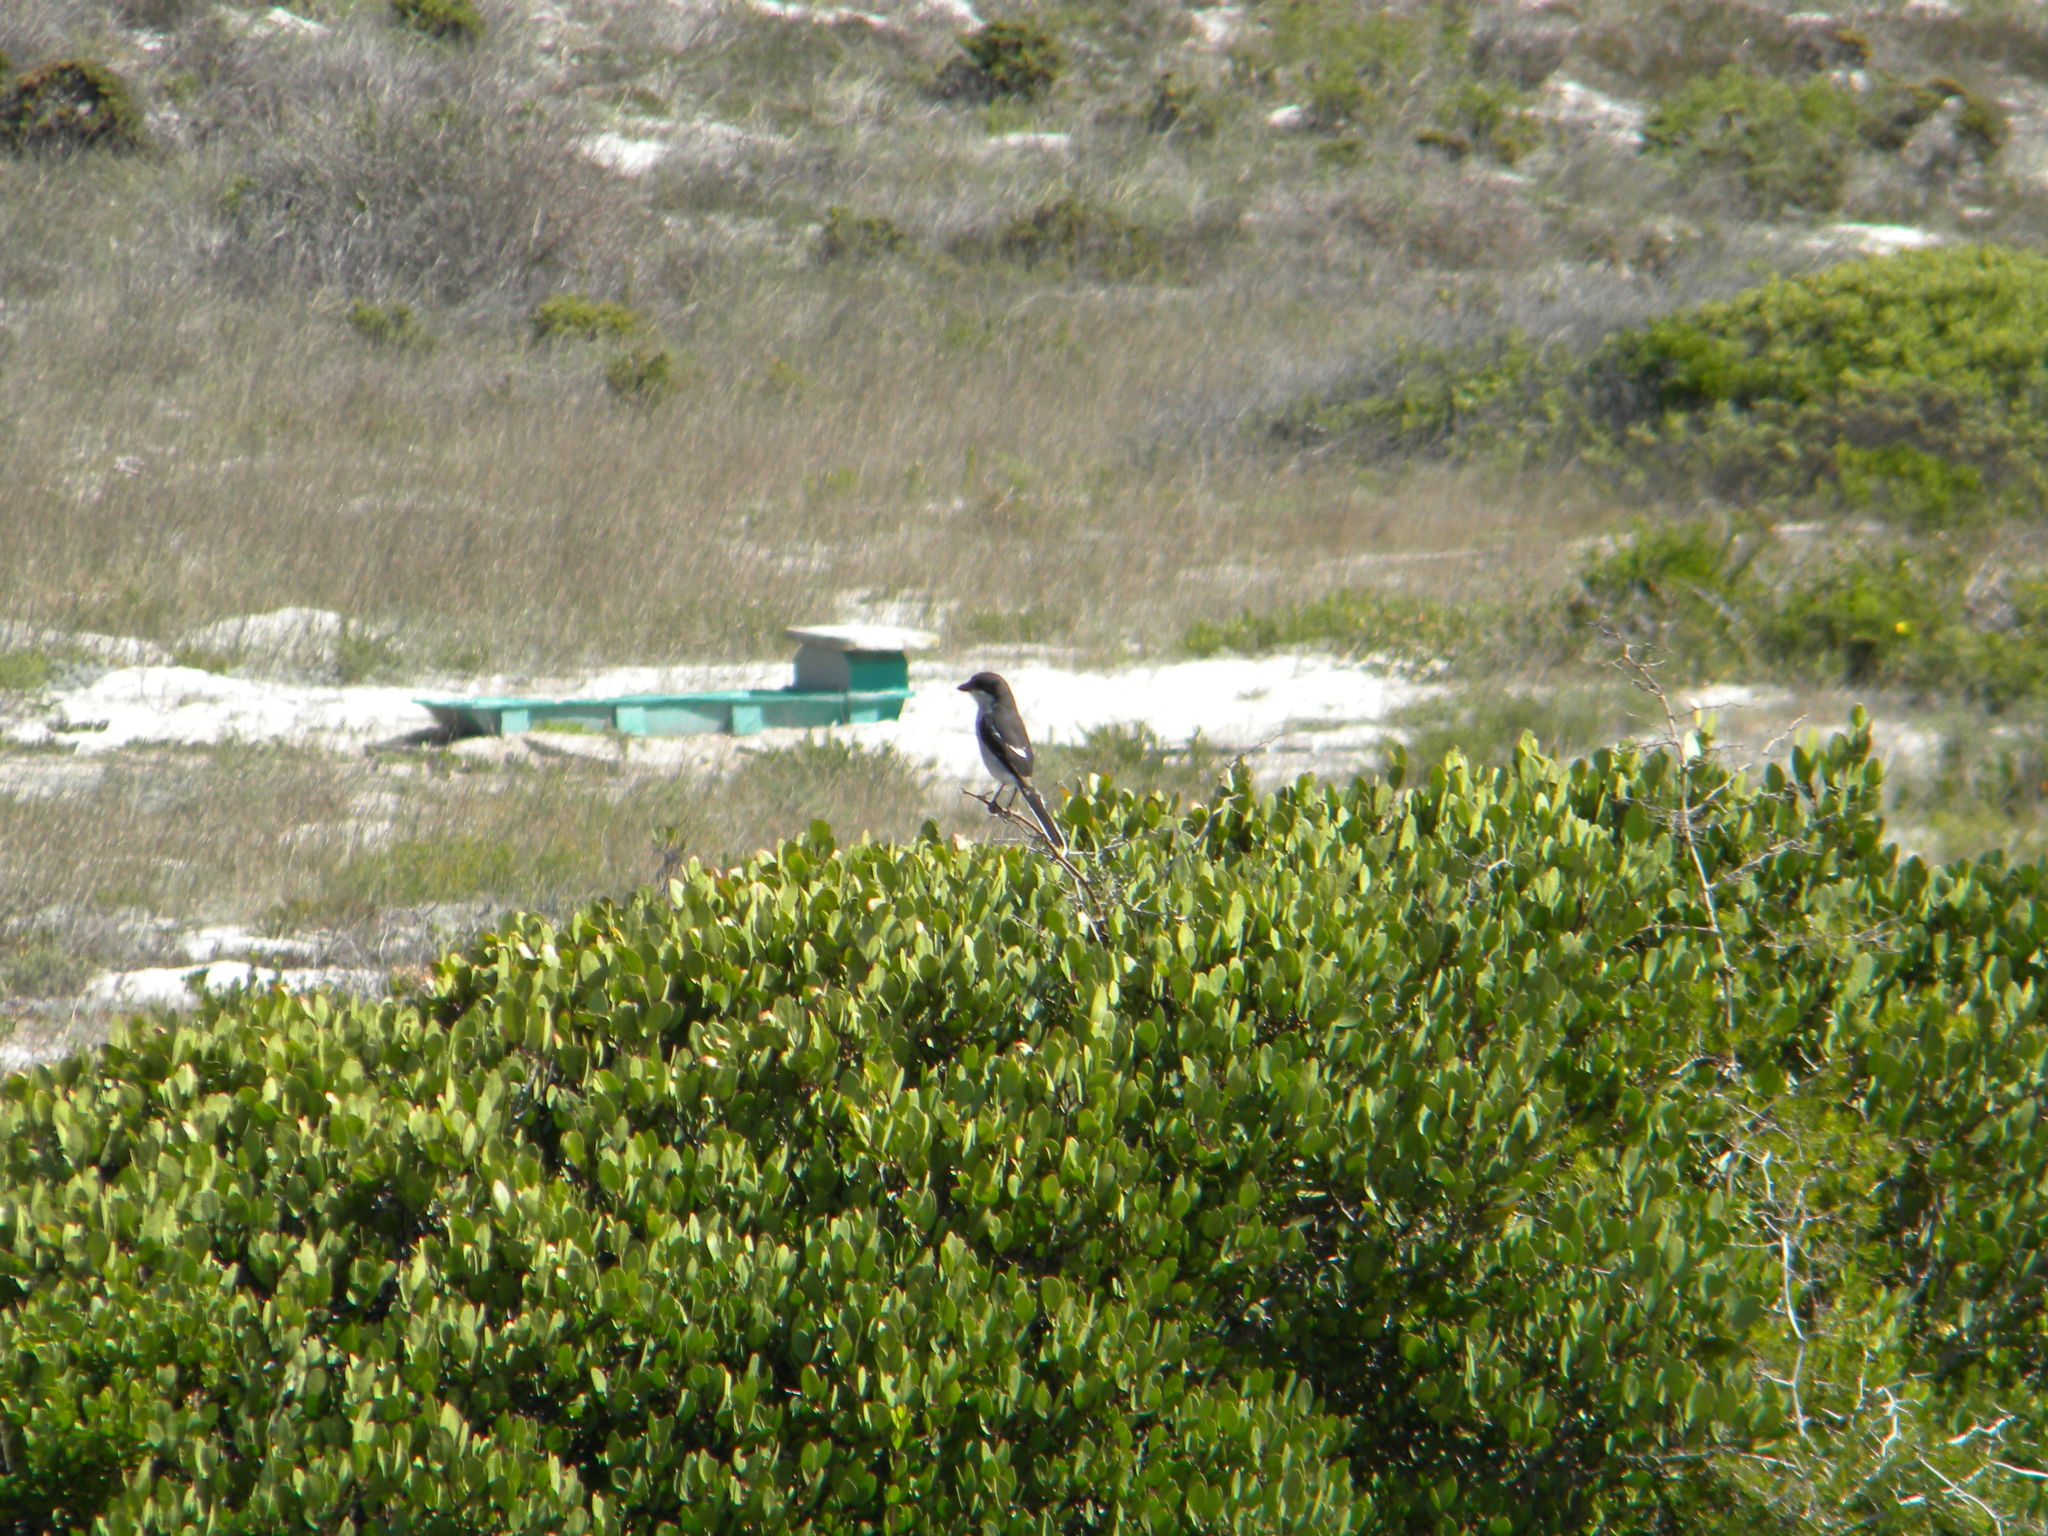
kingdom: Animalia
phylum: Chordata
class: Aves
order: Passeriformes
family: Laniidae
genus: Lanius
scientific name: Lanius collaris
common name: Southern fiscal
